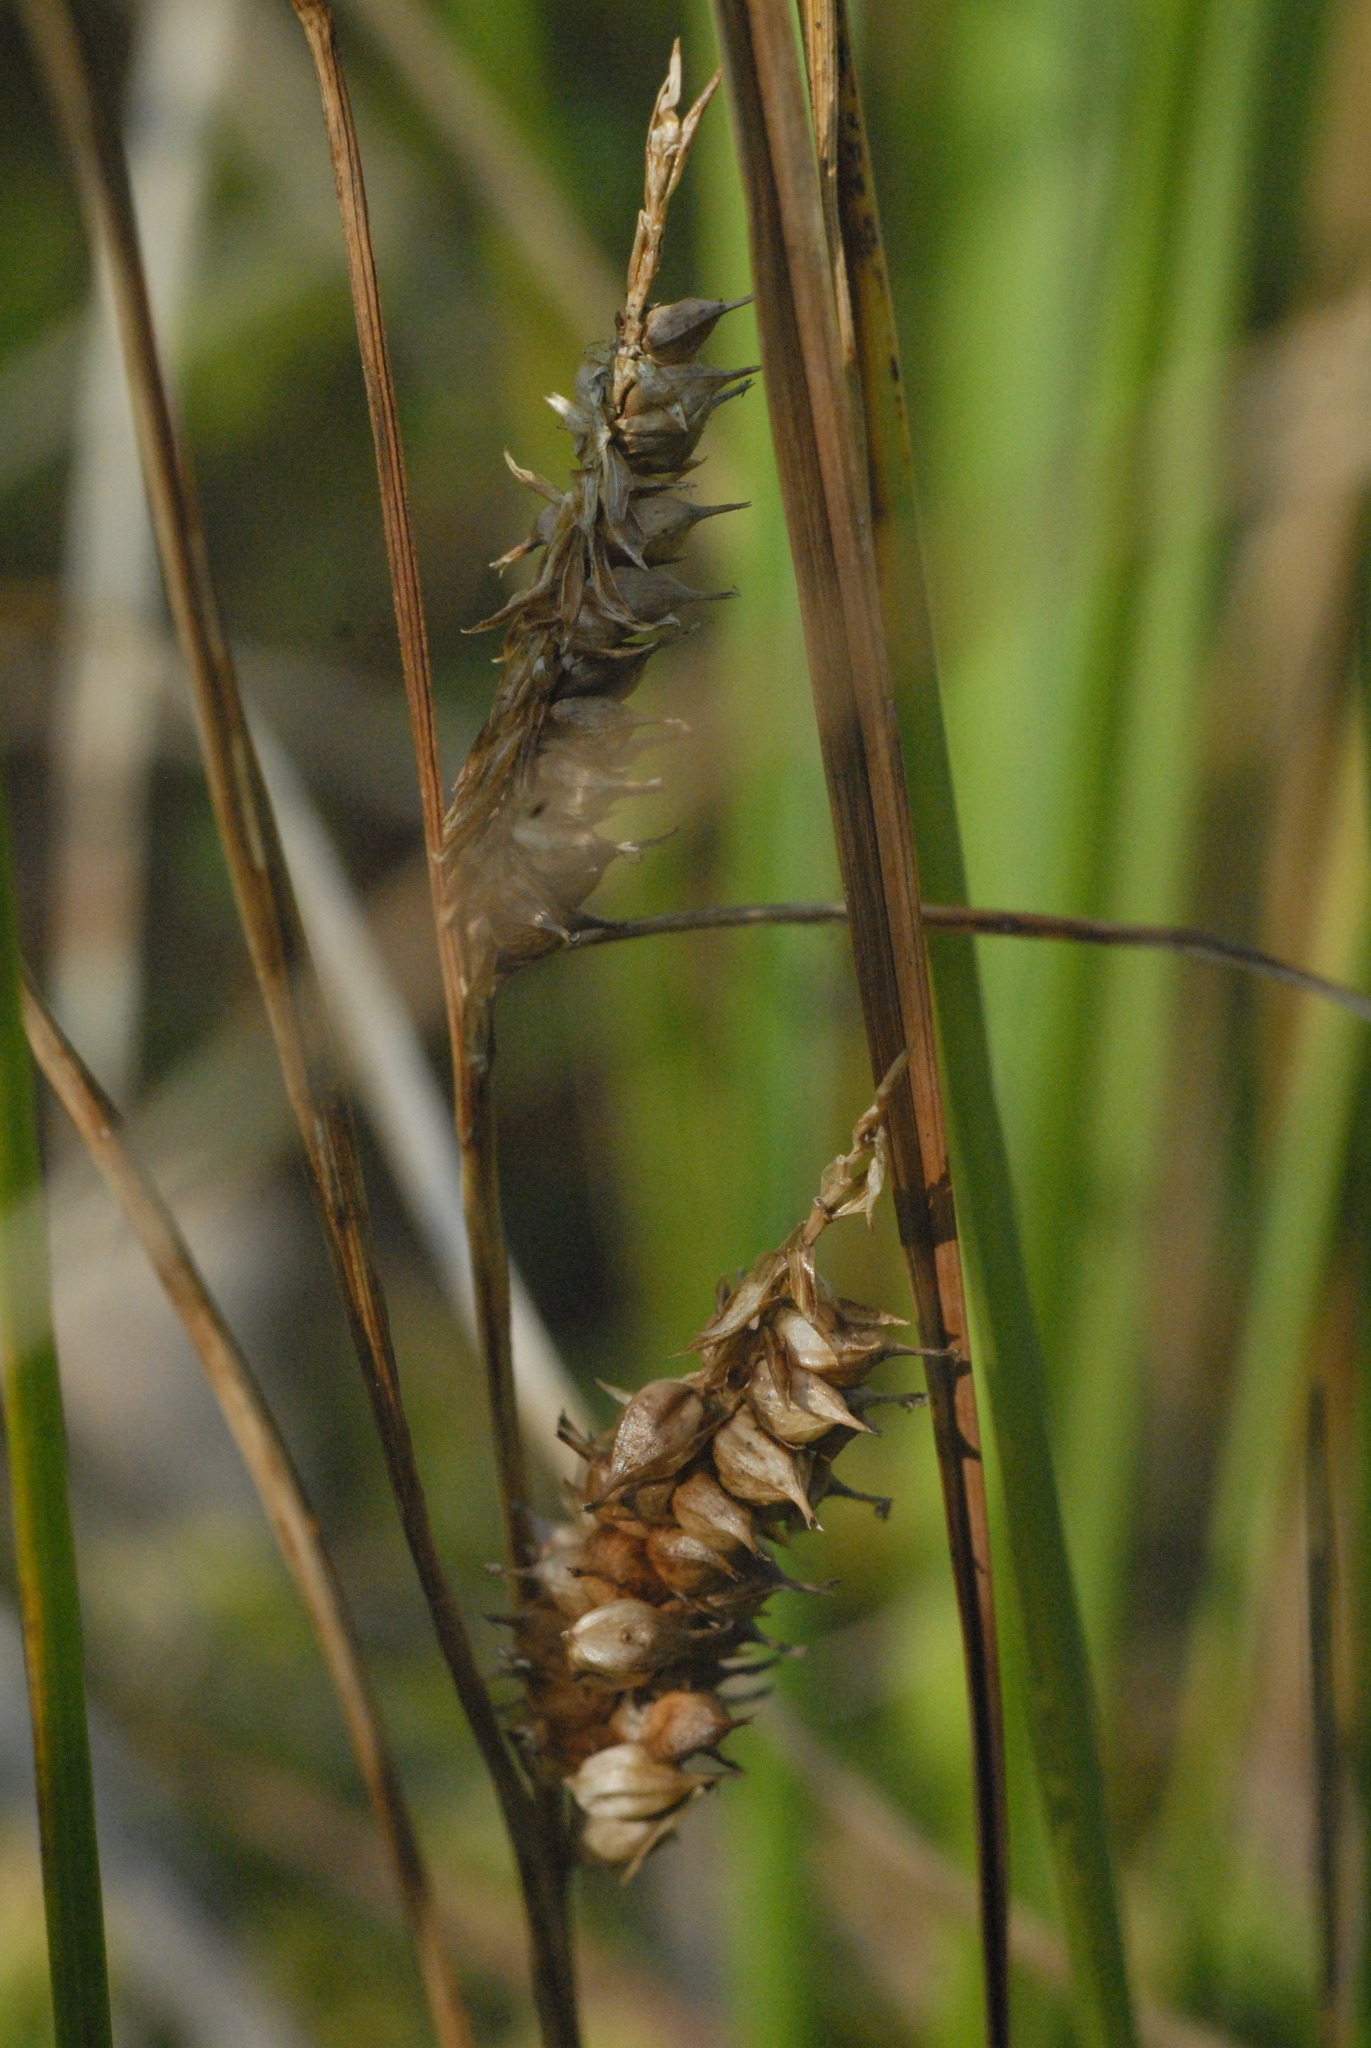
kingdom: Plantae
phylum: Tracheophyta
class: Liliopsida
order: Poales
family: Cyperaceae
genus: Carex
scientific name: Carex rostrata
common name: Bottle sedge
